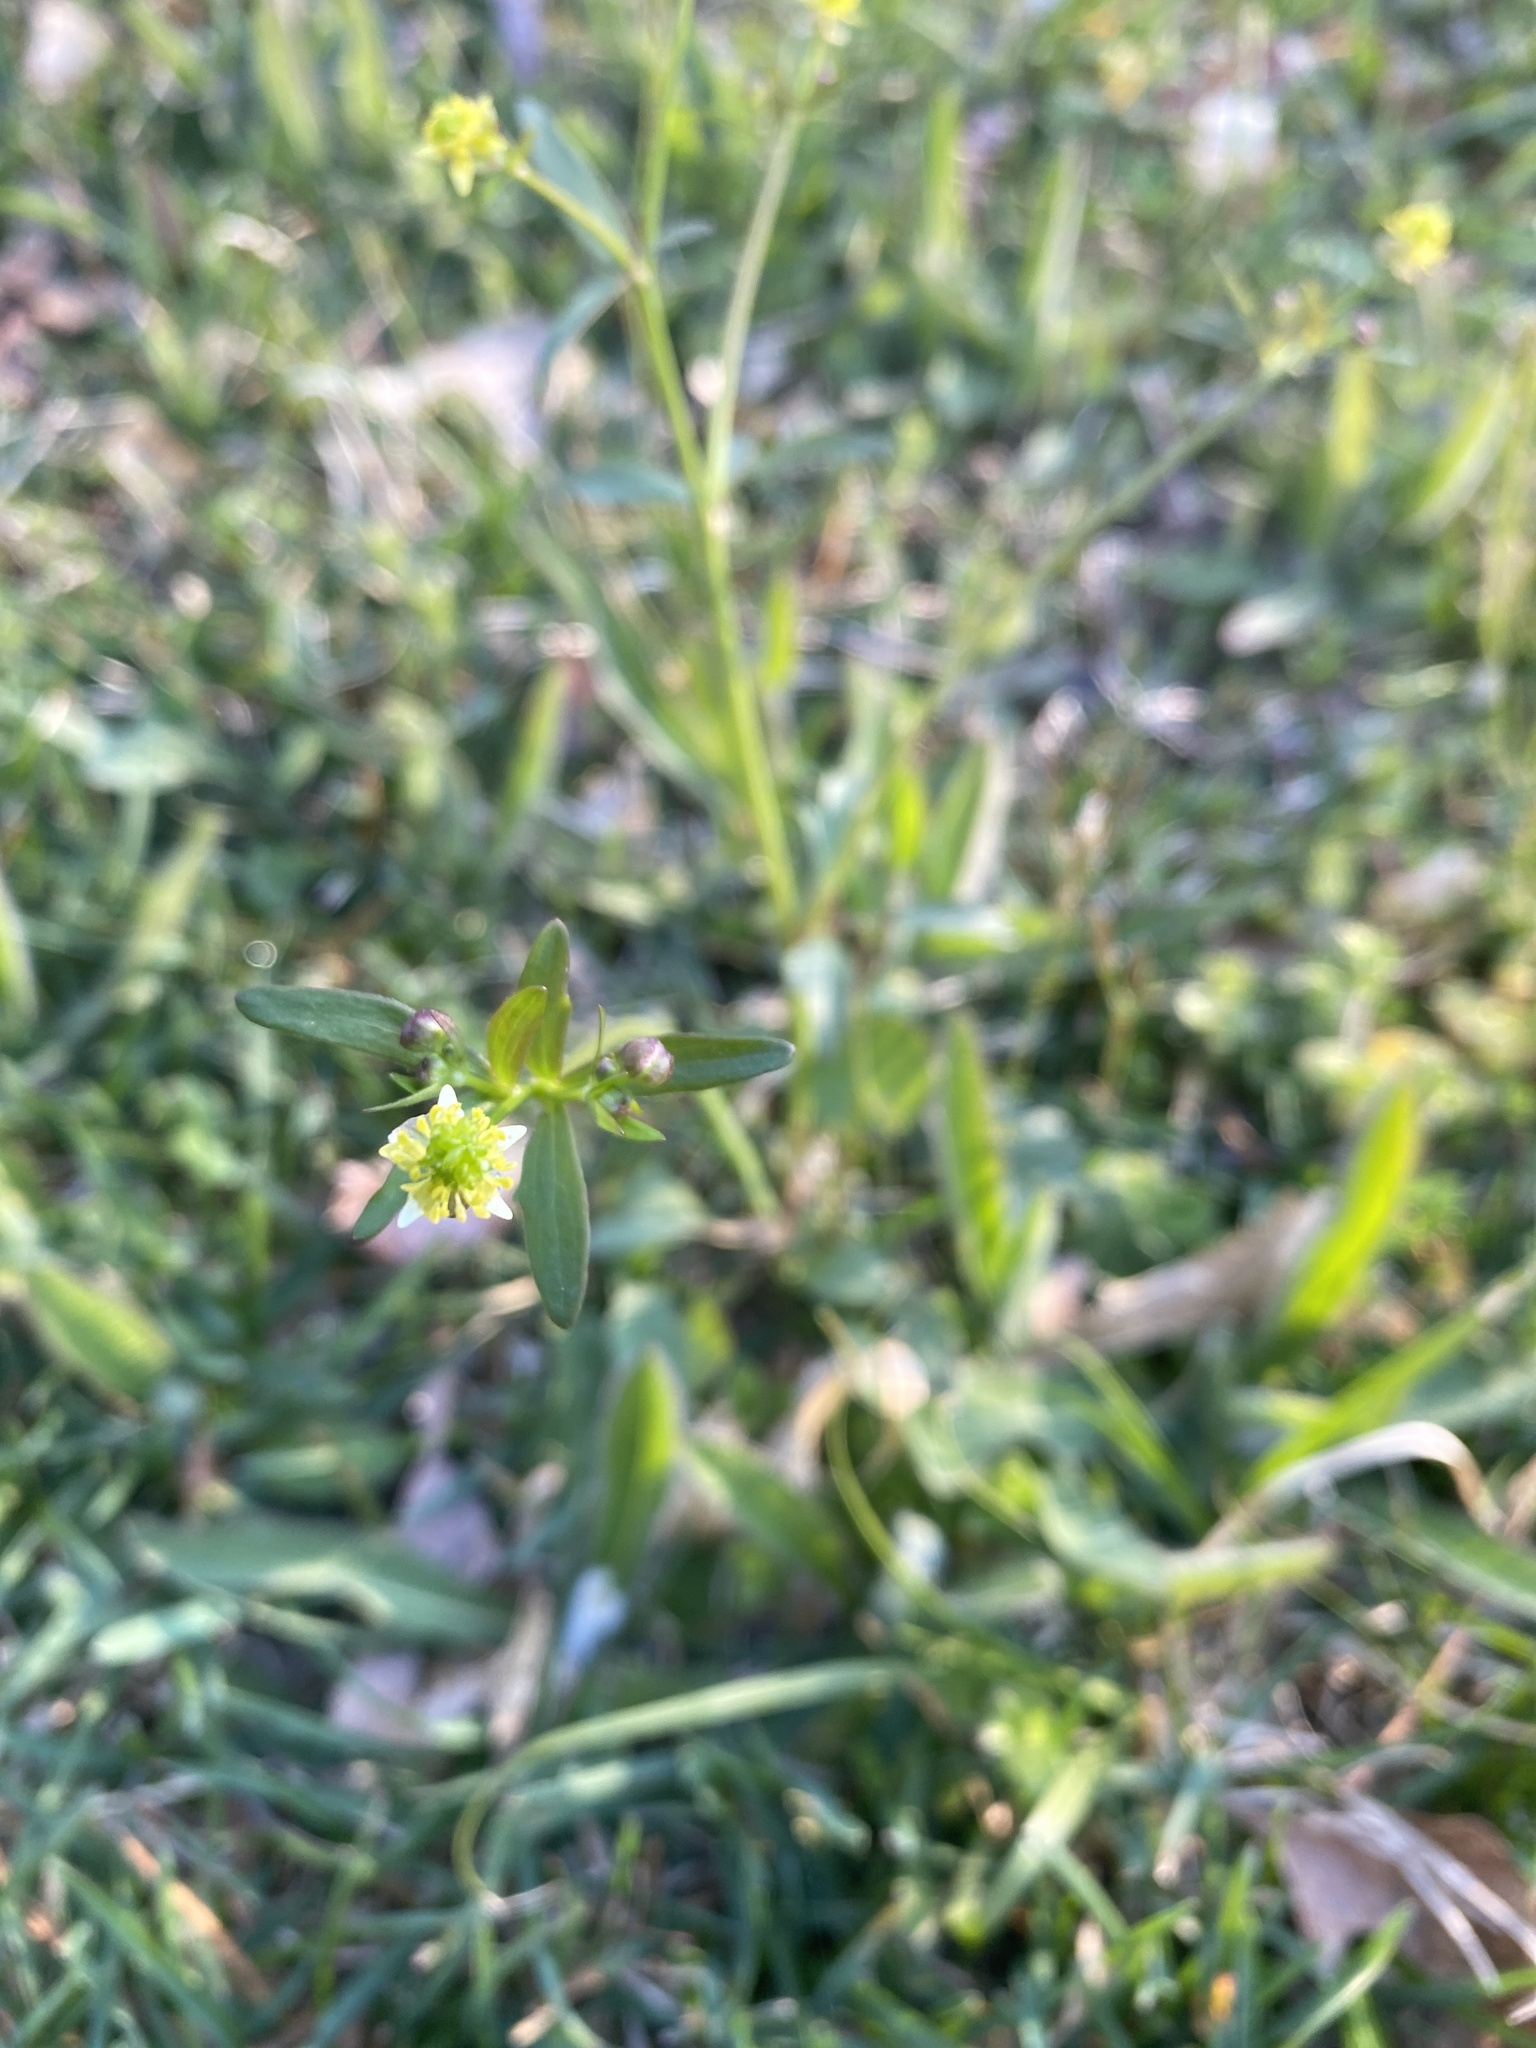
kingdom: Plantae
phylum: Tracheophyta
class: Magnoliopsida
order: Ranunculales
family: Ranunculaceae
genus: Ranunculus
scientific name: Ranunculus abortivus
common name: Early wood buttercup
